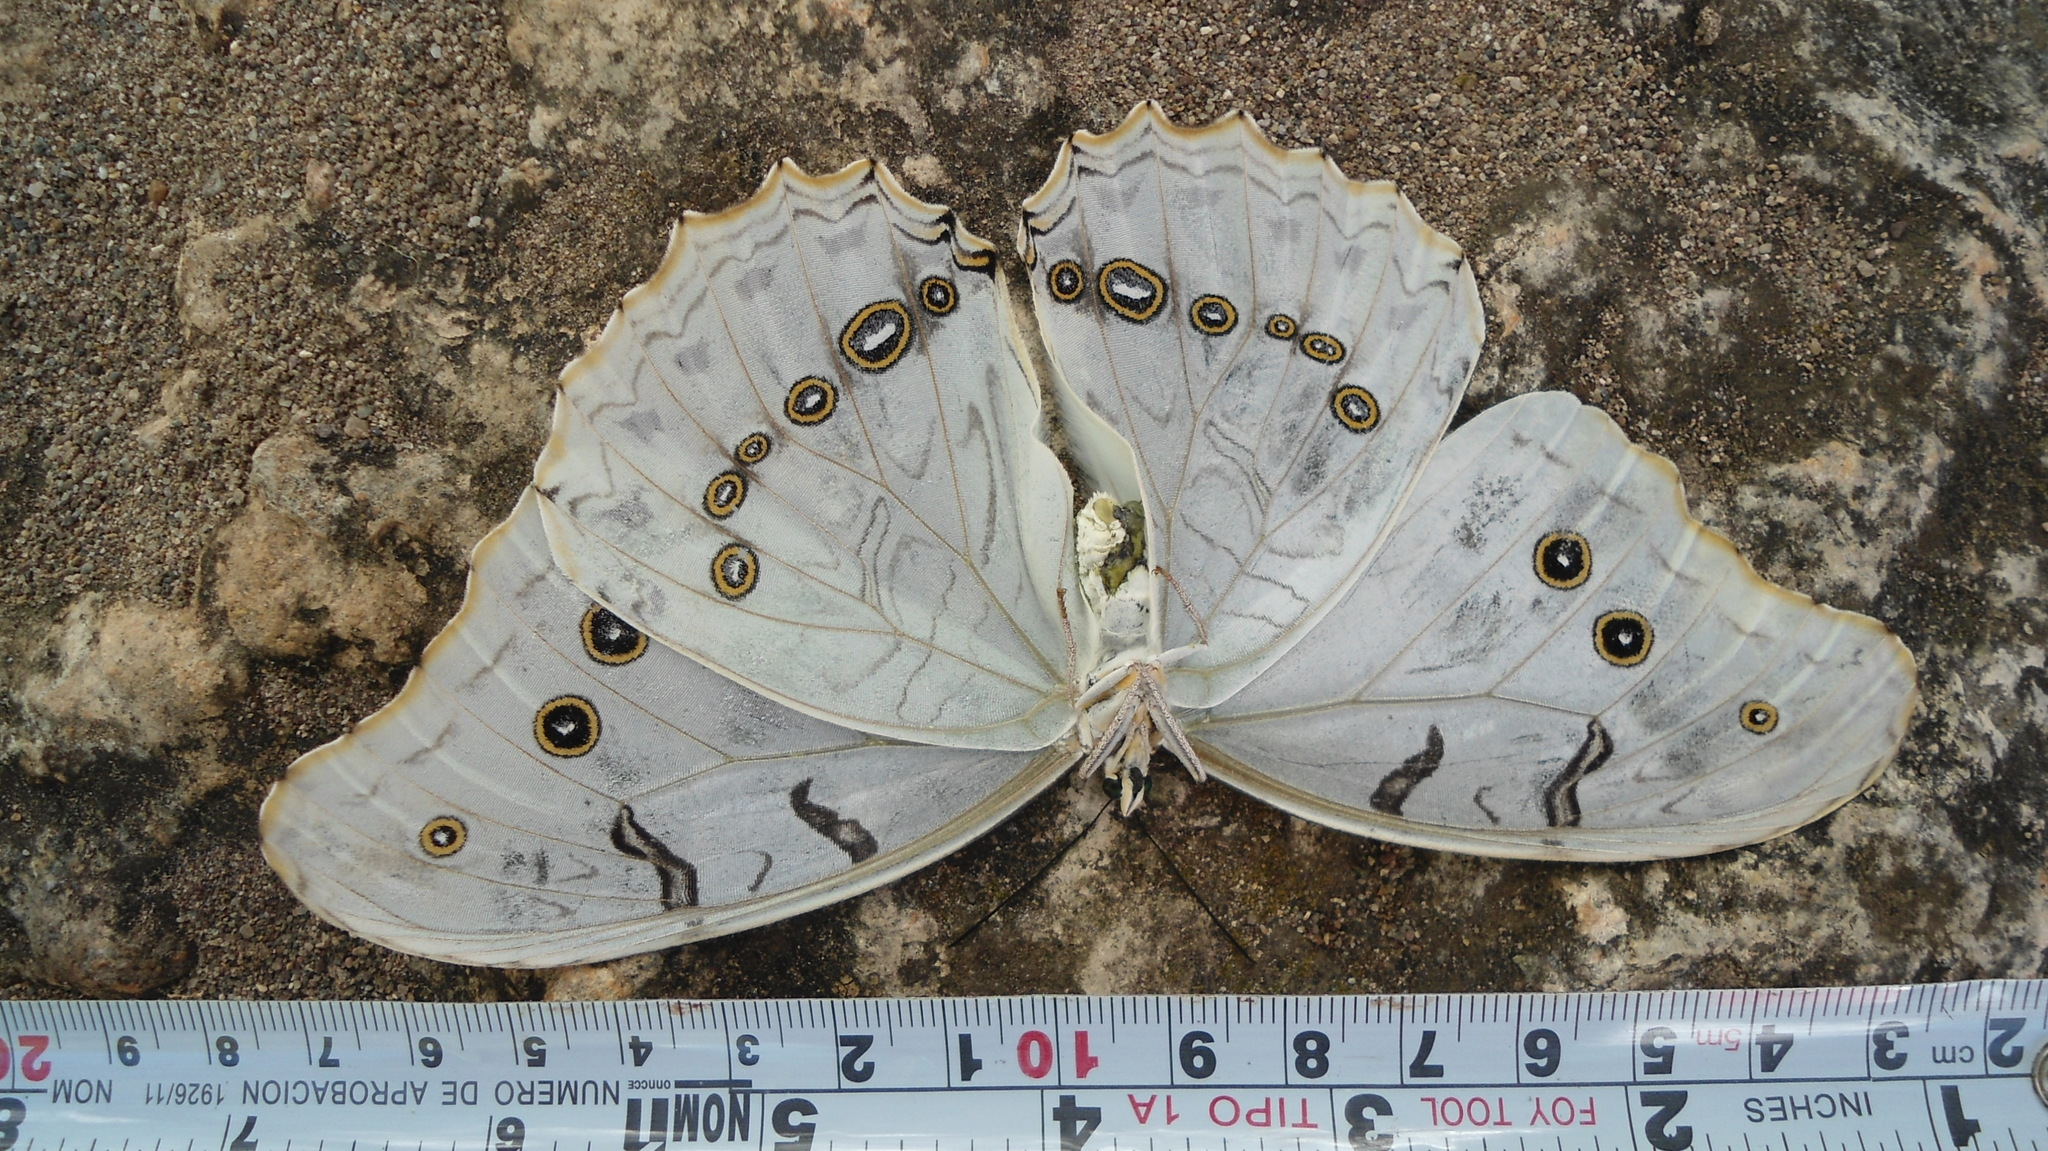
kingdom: Animalia
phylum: Arthropoda
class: Insecta
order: Lepidoptera
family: Nymphalidae
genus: Morpho
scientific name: Morpho polyphemus
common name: White morpho
